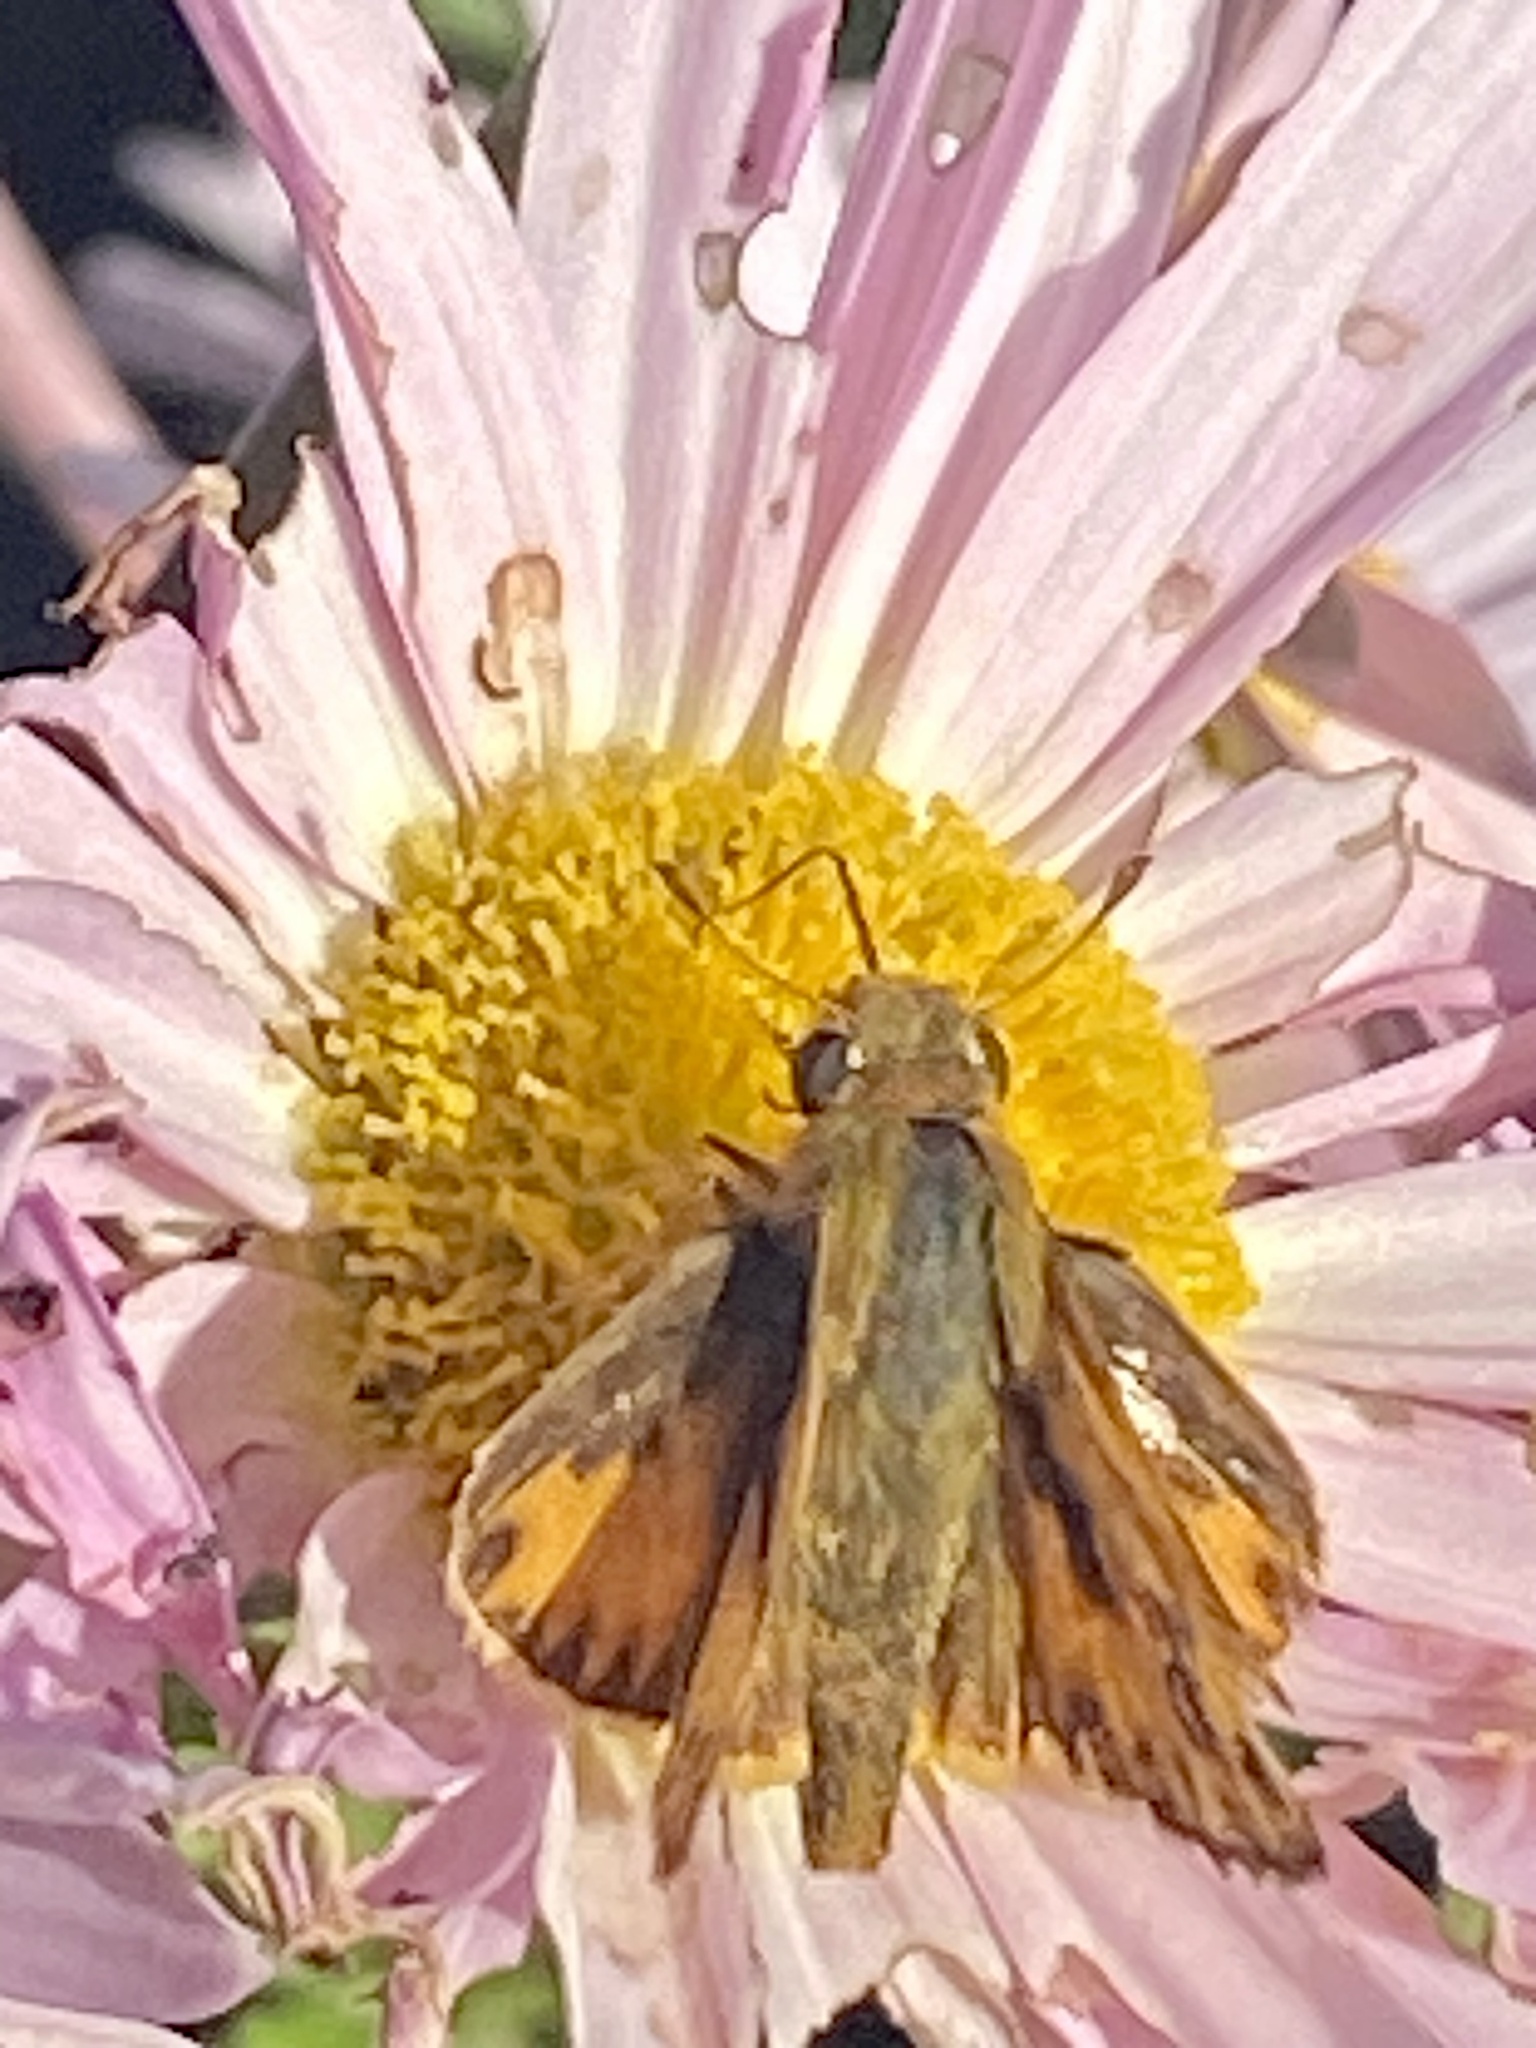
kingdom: Animalia
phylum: Arthropoda
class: Insecta
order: Lepidoptera
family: Hesperiidae
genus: Hylephila
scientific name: Hylephila phyleus
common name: Fiery skipper
